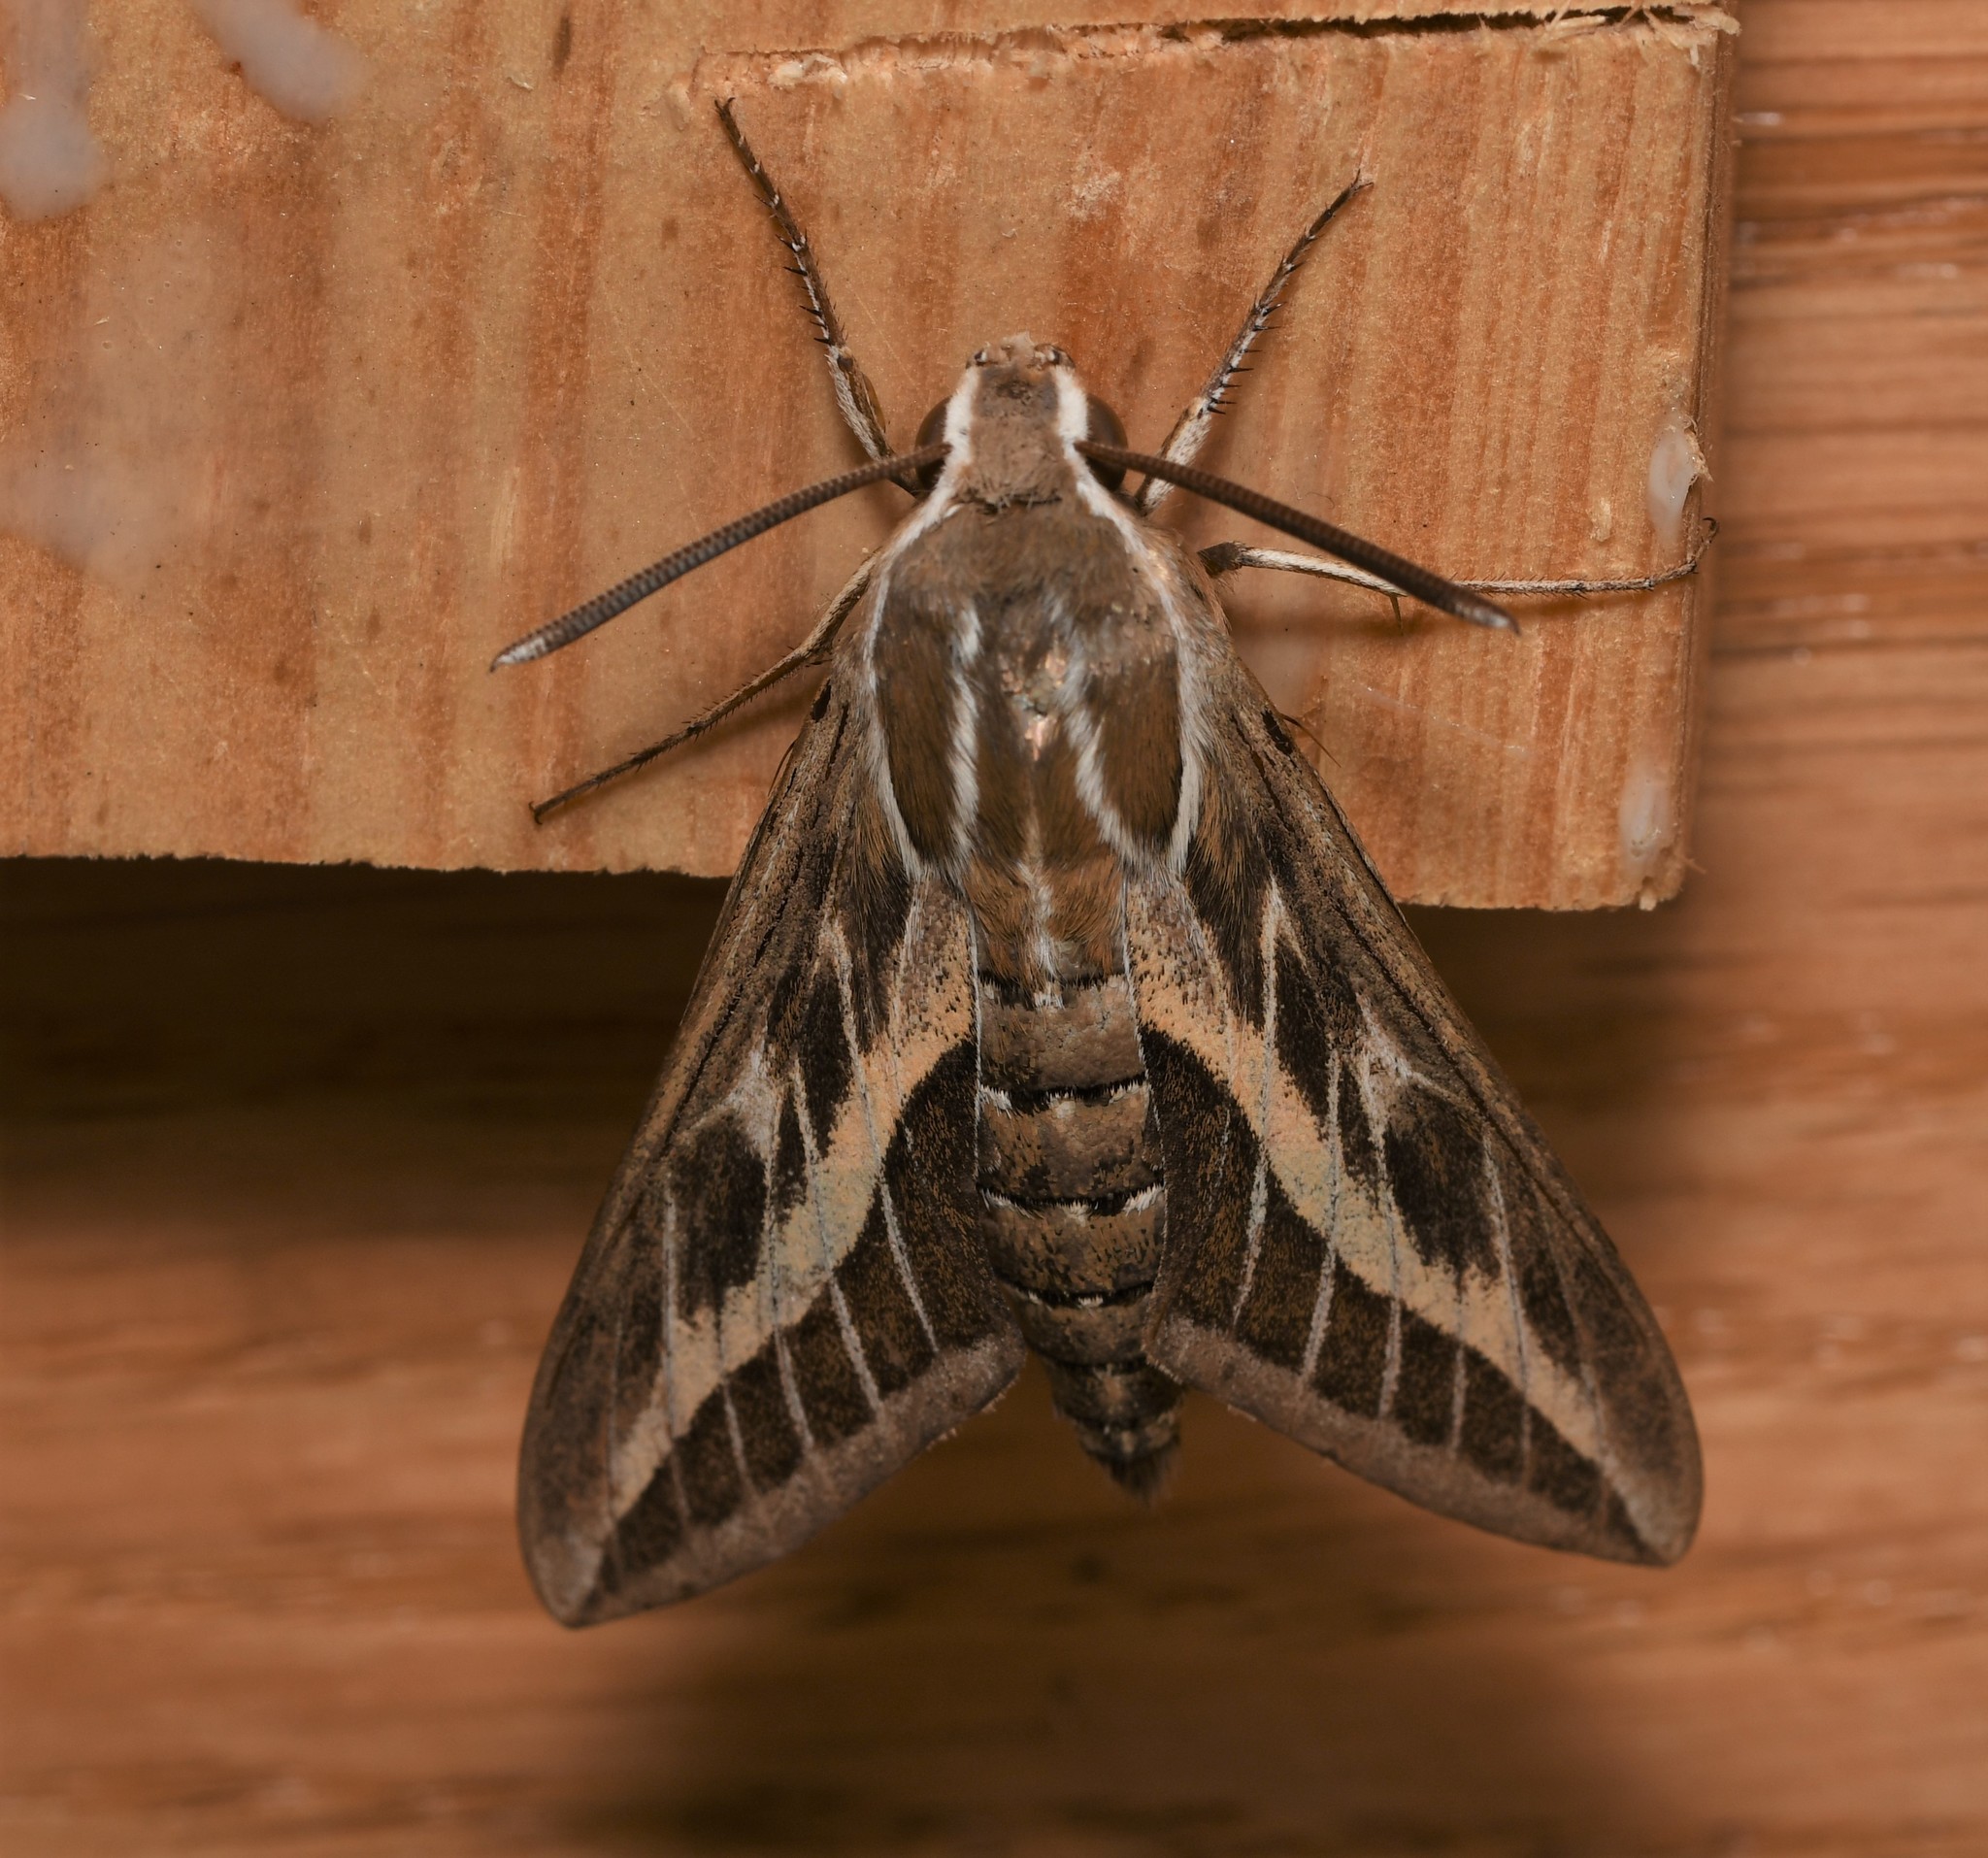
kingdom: Animalia
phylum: Arthropoda
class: Insecta
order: Lepidoptera
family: Sphingidae
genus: Hyles
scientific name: Hyles livornica
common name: Striped hawk-moth
